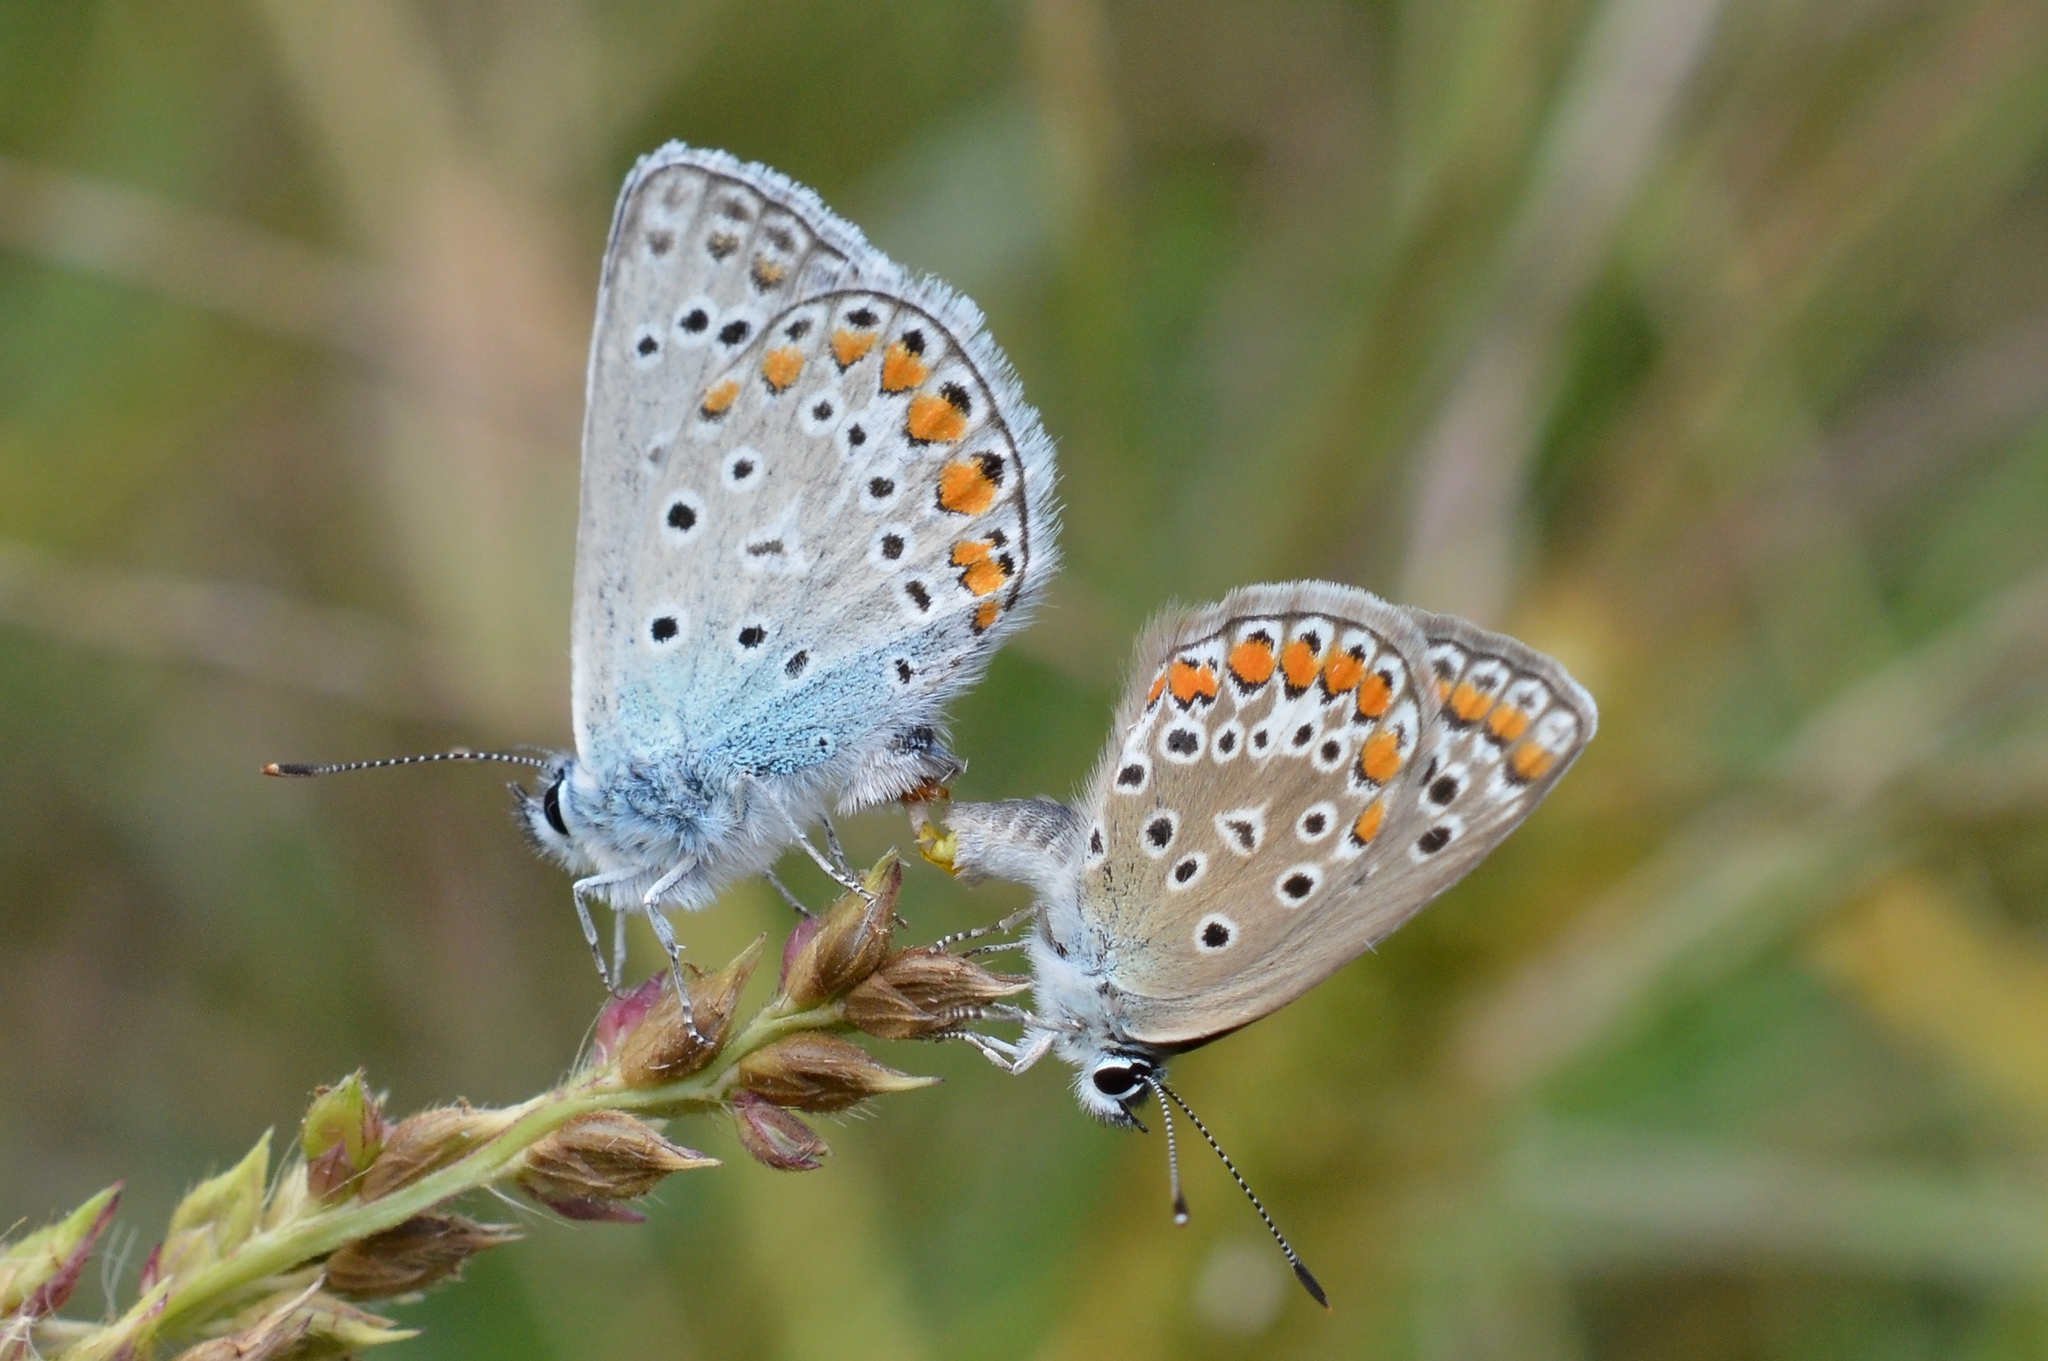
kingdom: Animalia
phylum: Arthropoda
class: Insecta
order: Lepidoptera
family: Lycaenidae
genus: Polyommatus
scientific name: Polyommatus icarus
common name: Common blue
